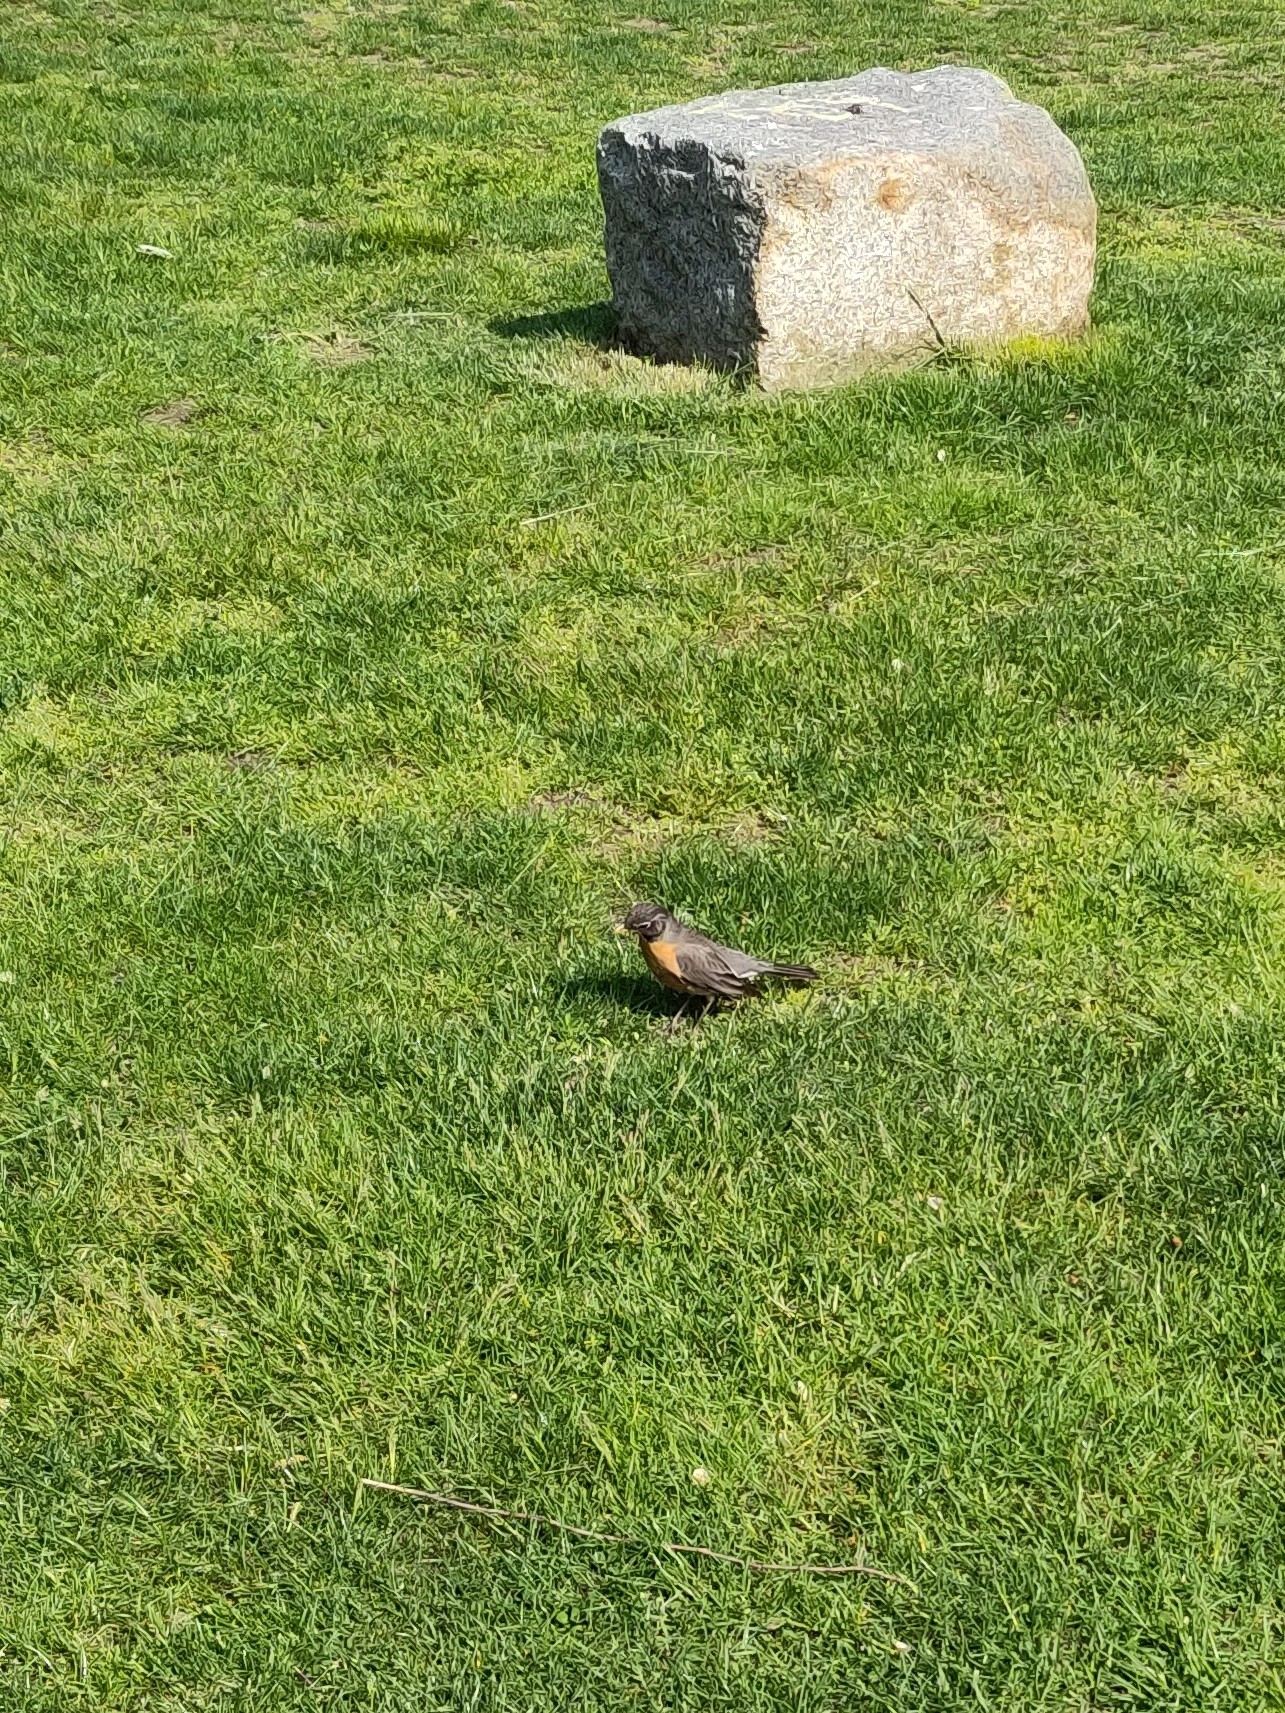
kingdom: Animalia
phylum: Chordata
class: Aves
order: Passeriformes
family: Turdidae
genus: Turdus
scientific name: Turdus migratorius
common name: American robin
